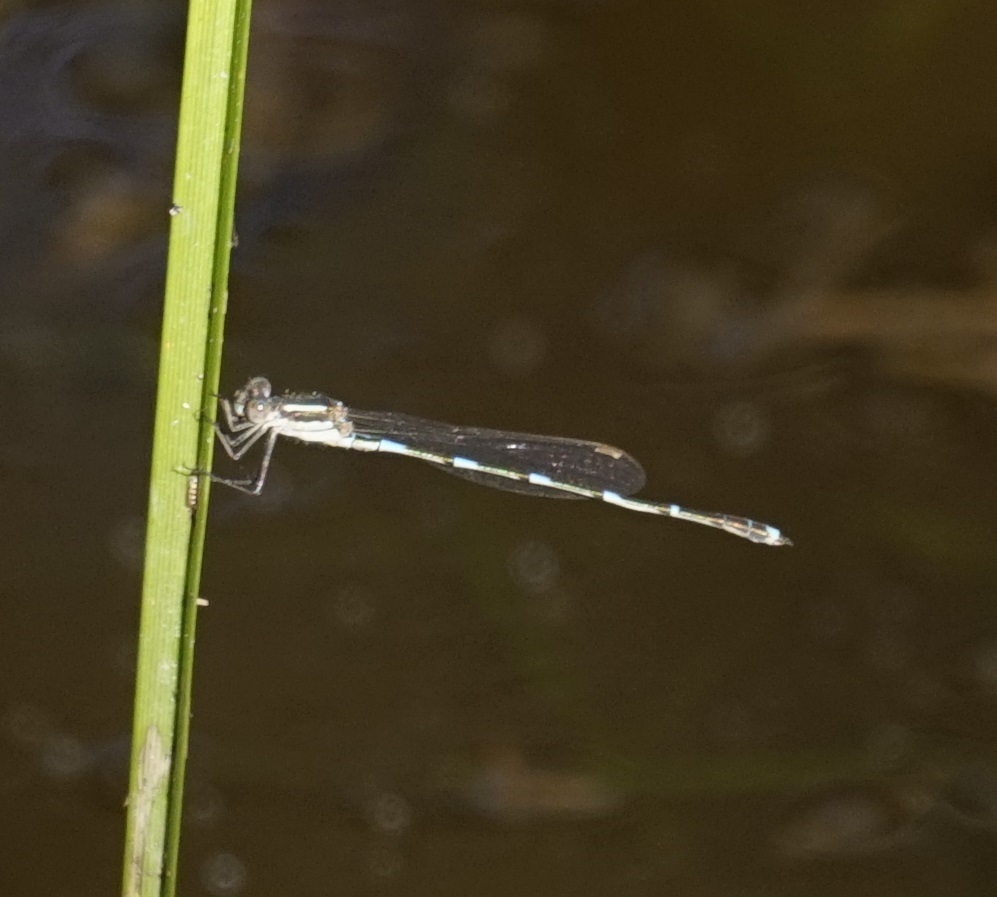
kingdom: Animalia
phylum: Arthropoda
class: Insecta
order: Odonata
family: Lestidae
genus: Austrolestes
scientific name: Austrolestes leda
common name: Wandering ringtail
